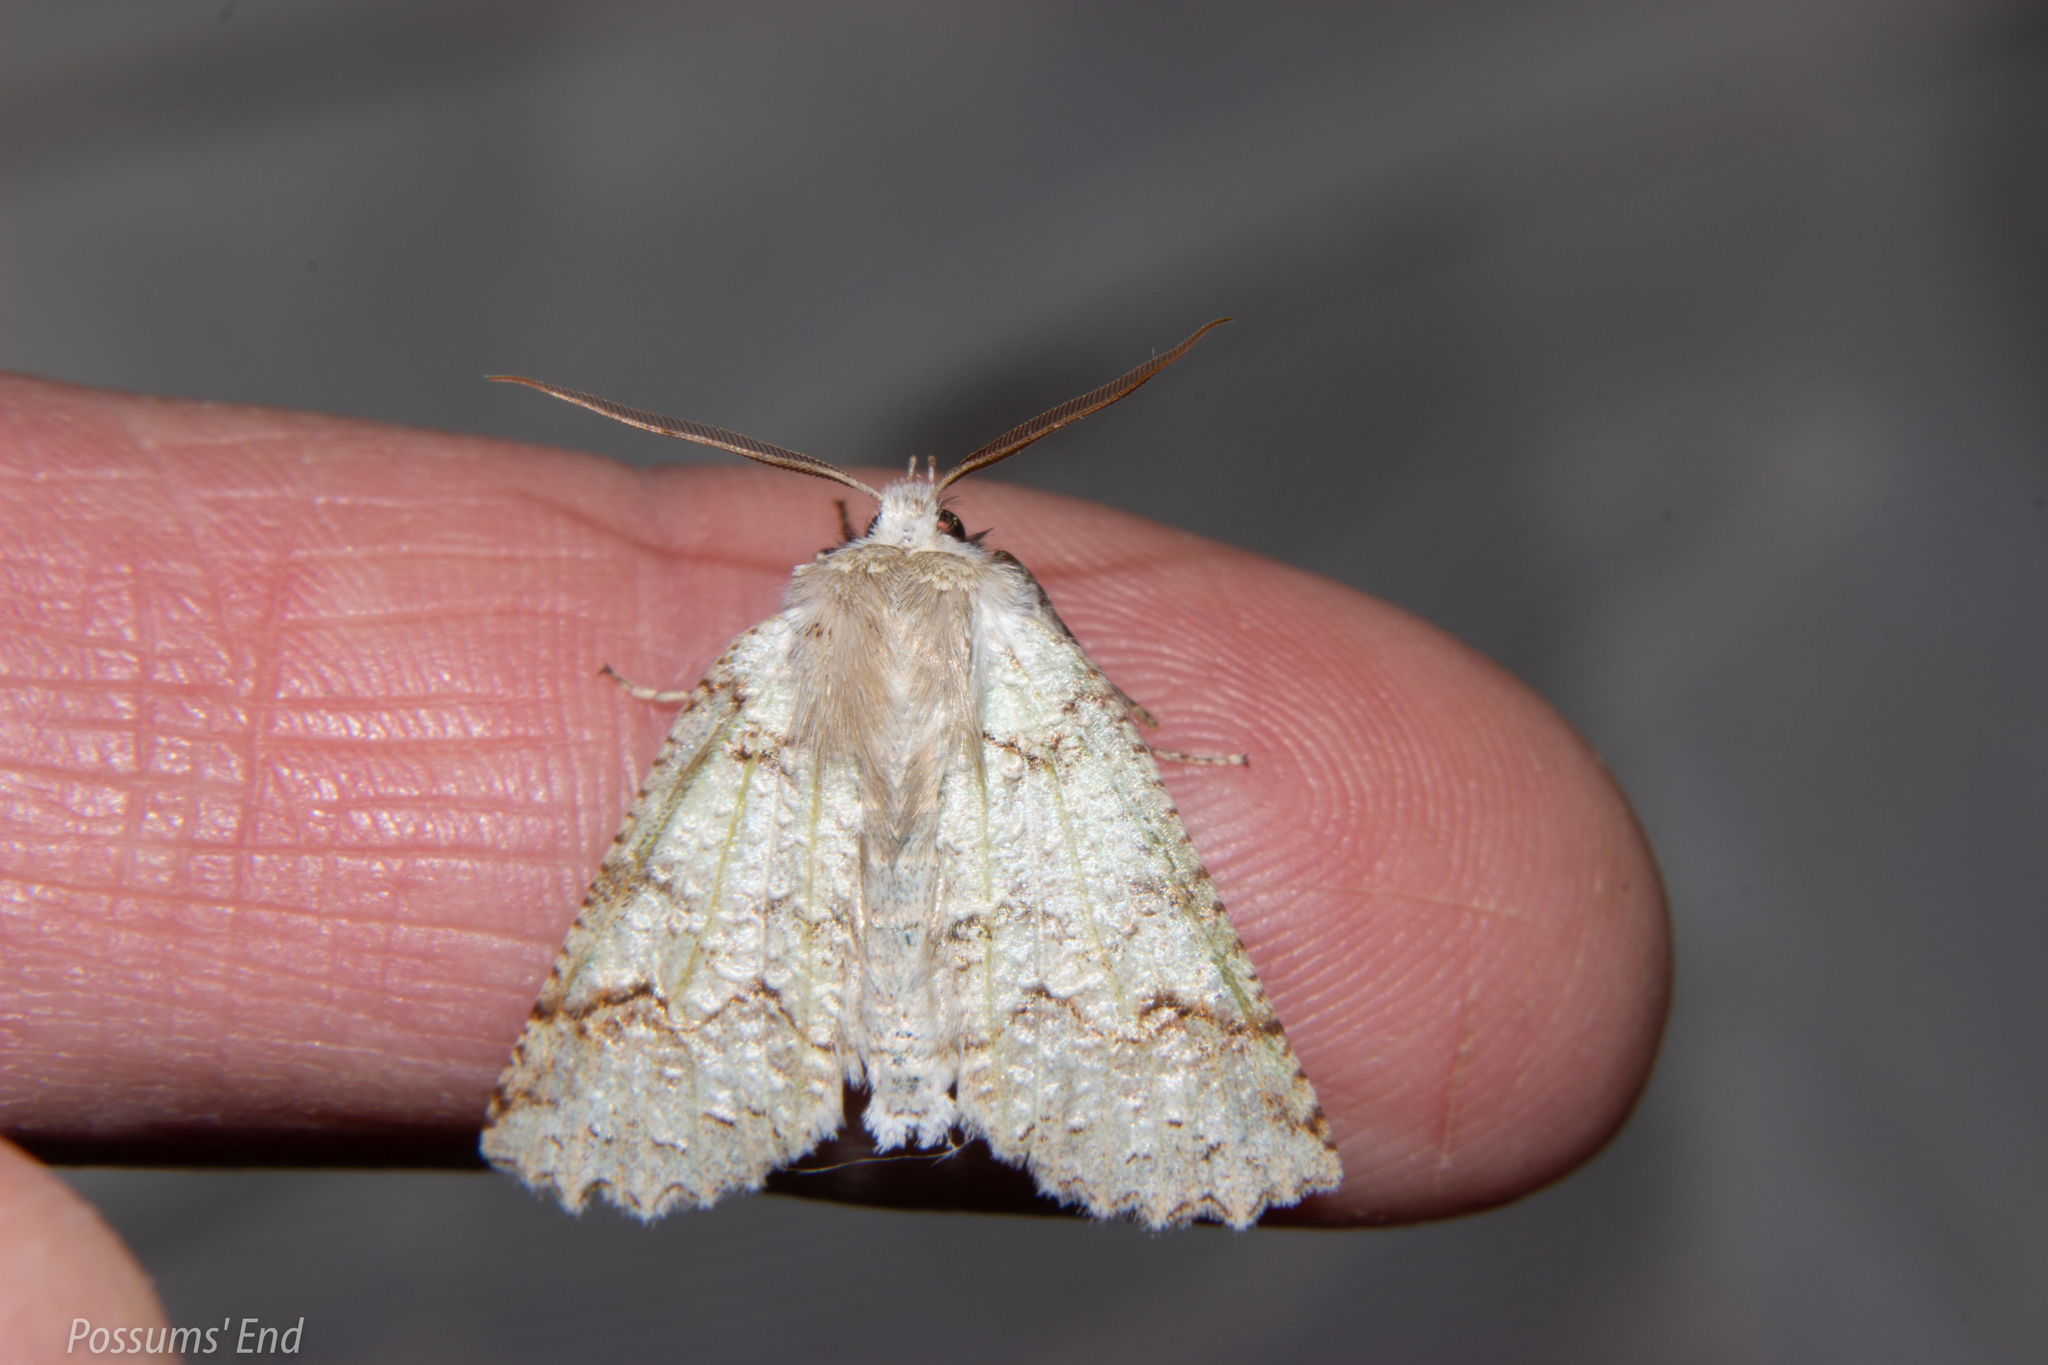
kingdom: Animalia
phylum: Arthropoda
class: Insecta
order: Lepidoptera
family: Geometridae
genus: Declana
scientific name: Declana floccosa
